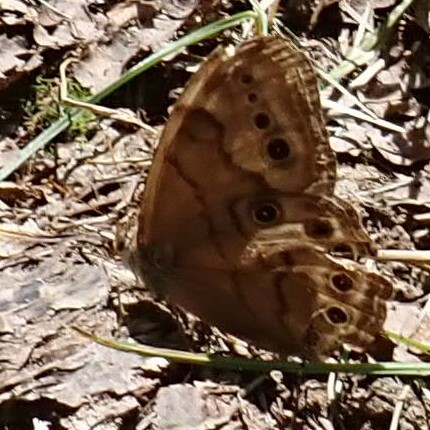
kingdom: Animalia
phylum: Arthropoda
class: Insecta
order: Lepidoptera
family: Nymphalidae
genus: Lethe
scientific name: Lethe anthedon
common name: Northern pearly-eye
